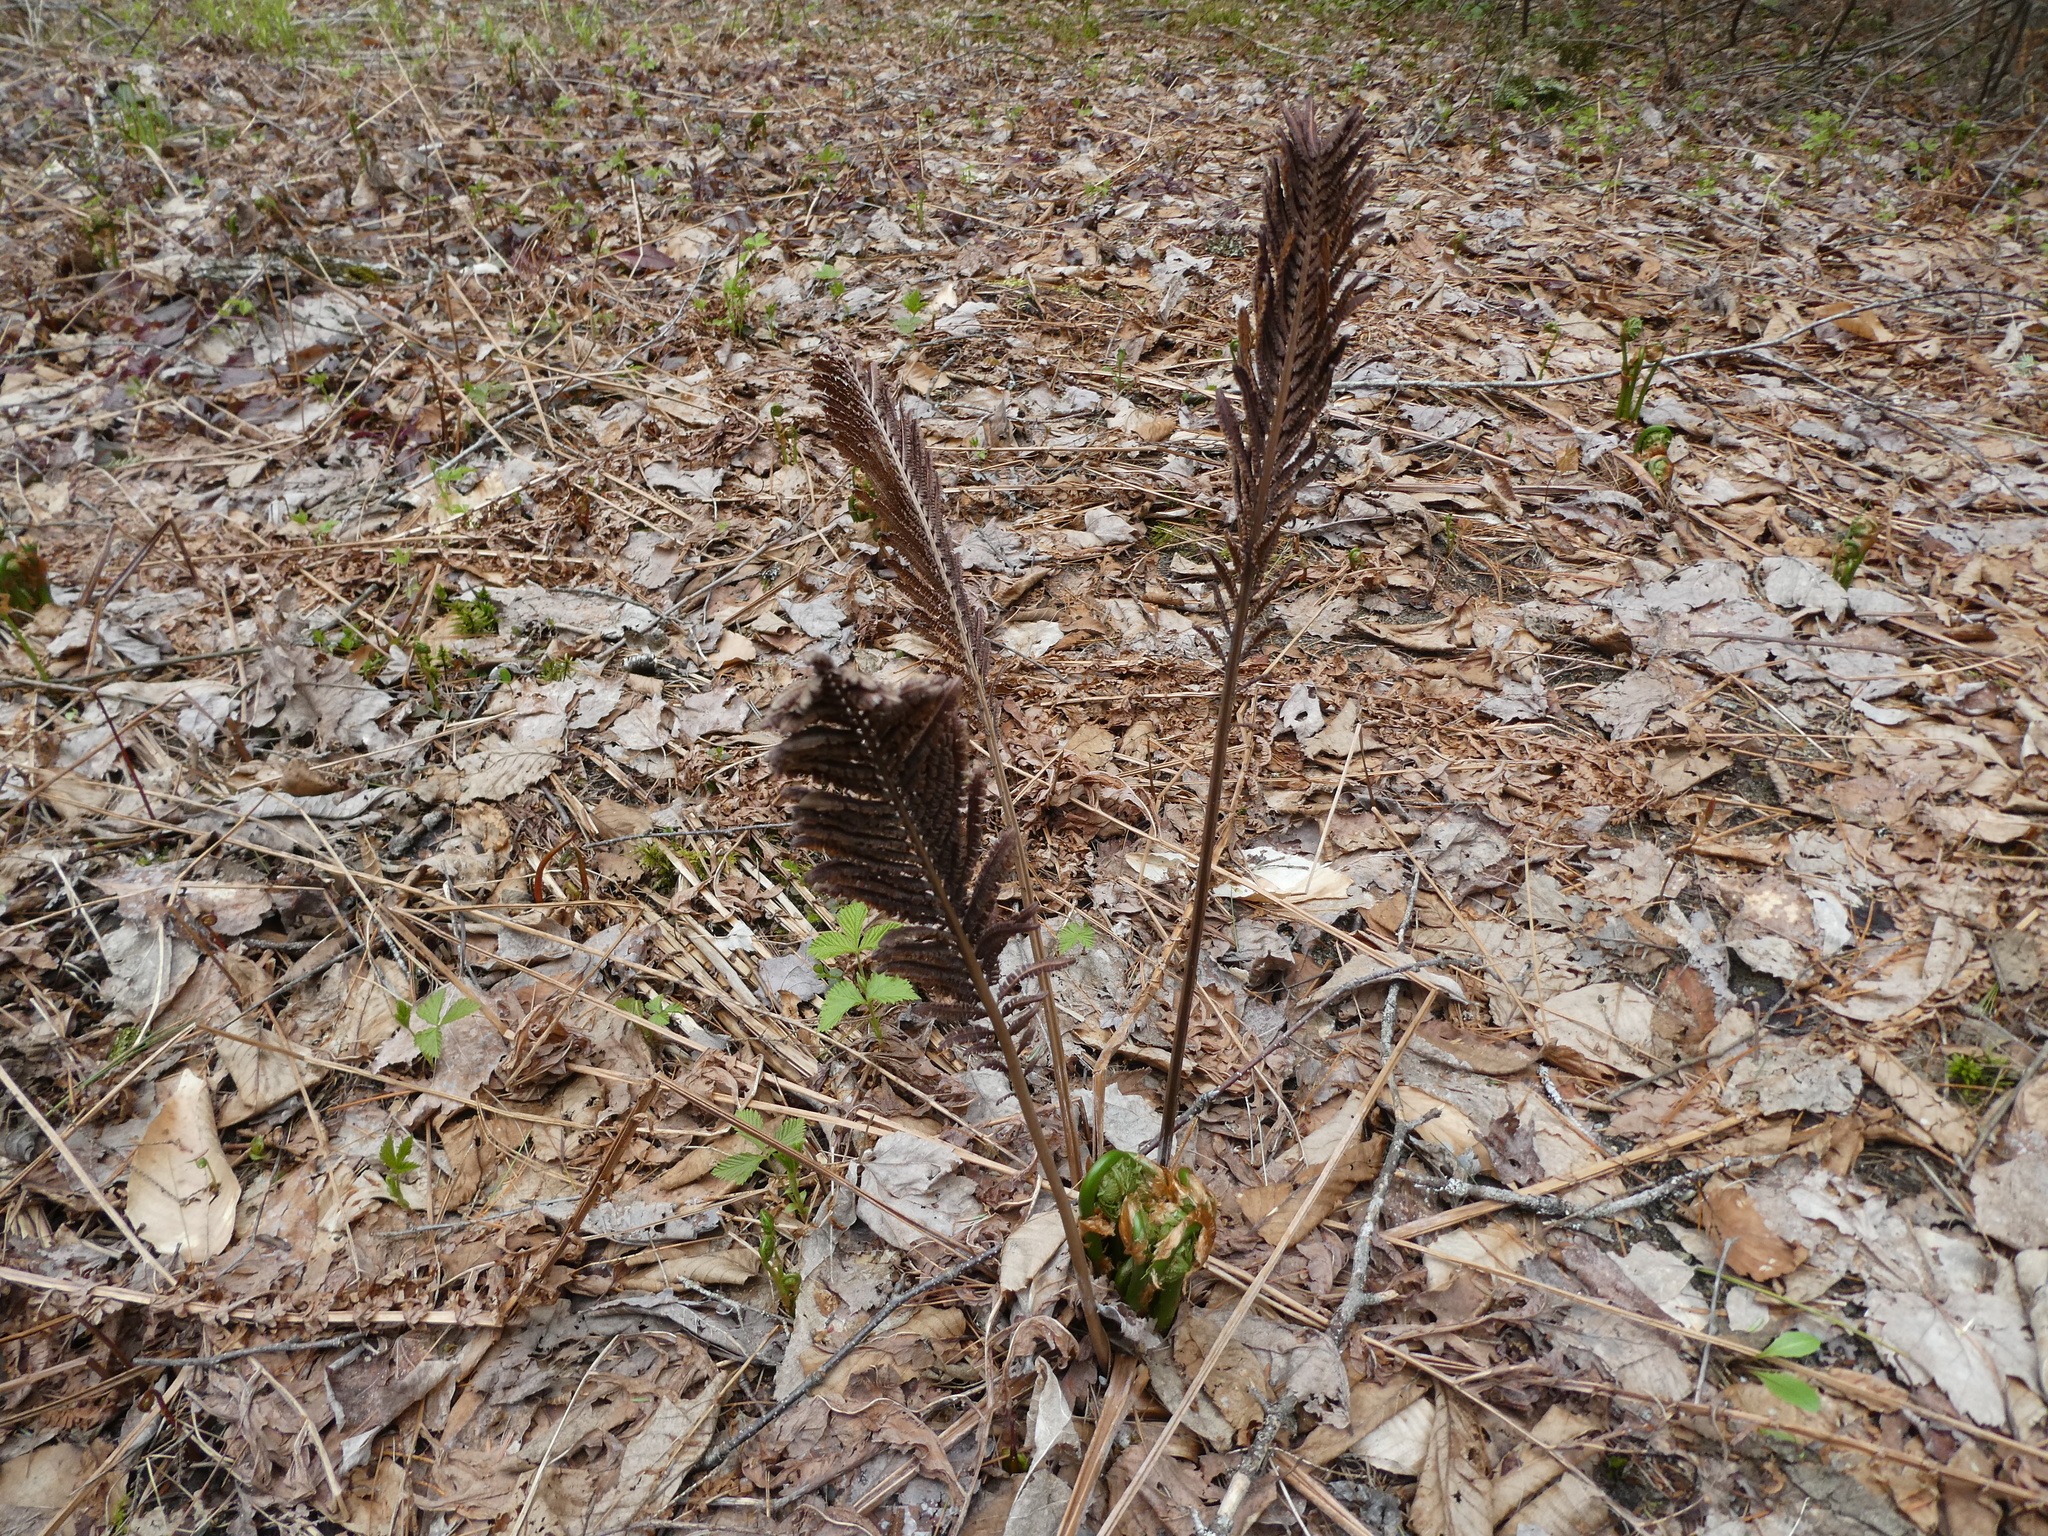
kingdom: Plantae
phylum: Tracheophyta
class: Polypodiopsida
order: Polypodiales
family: Onocleaceae
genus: Matteuccia
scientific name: Matteuccia struthiopteris
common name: Ostrich fern
